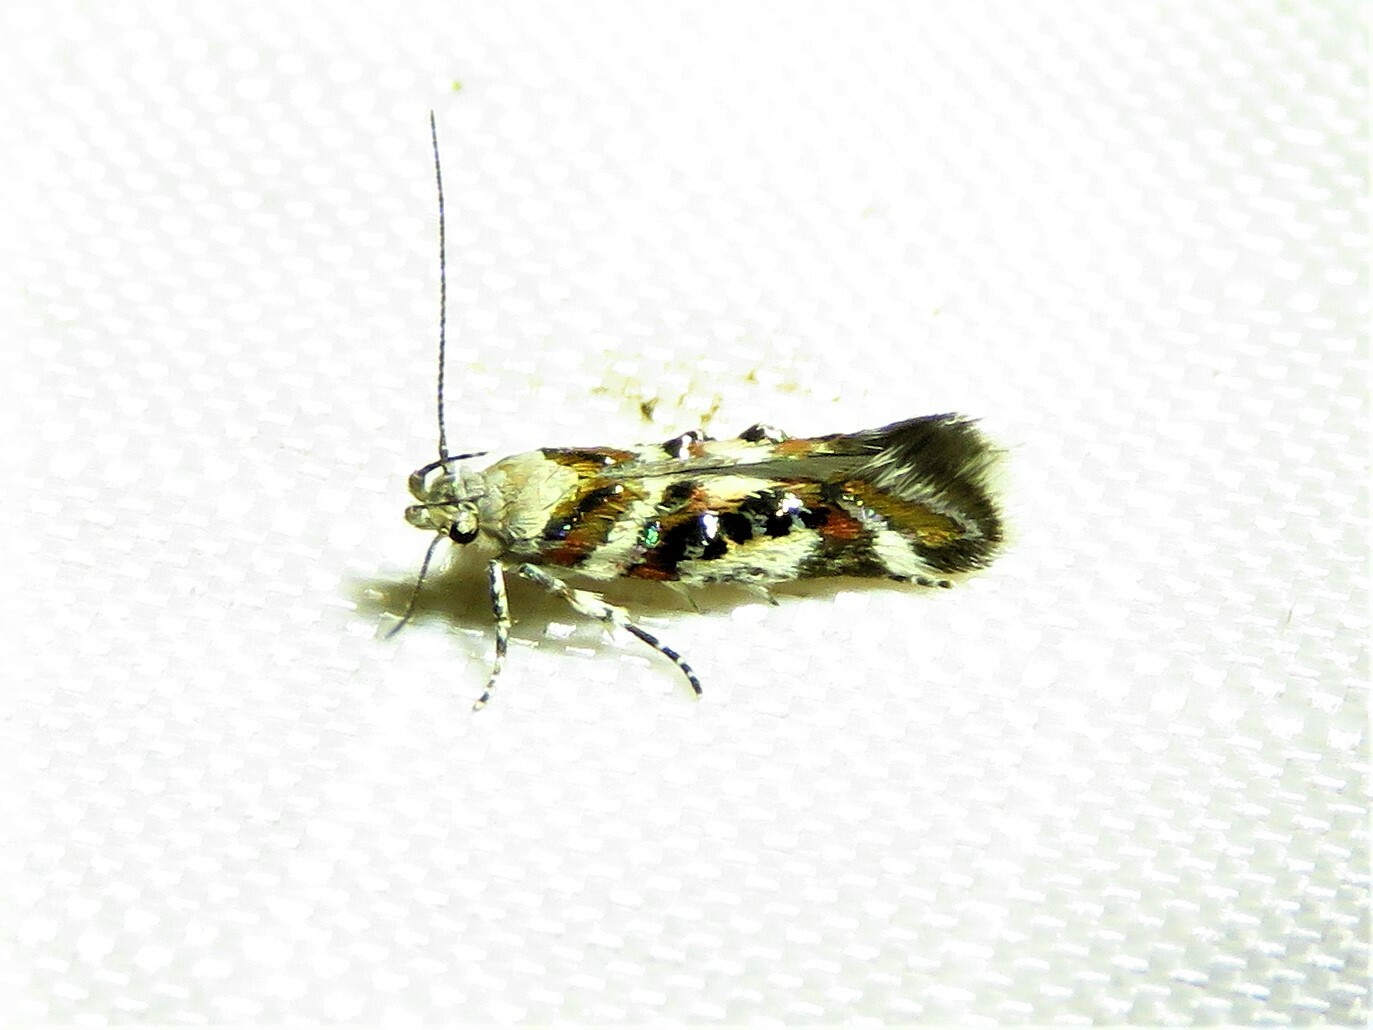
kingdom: Animalia
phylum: Arthropoda
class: Insecta
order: Lepidoptera
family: Gelechiidae
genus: Aristotelia
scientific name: Aristotelia elegantella
